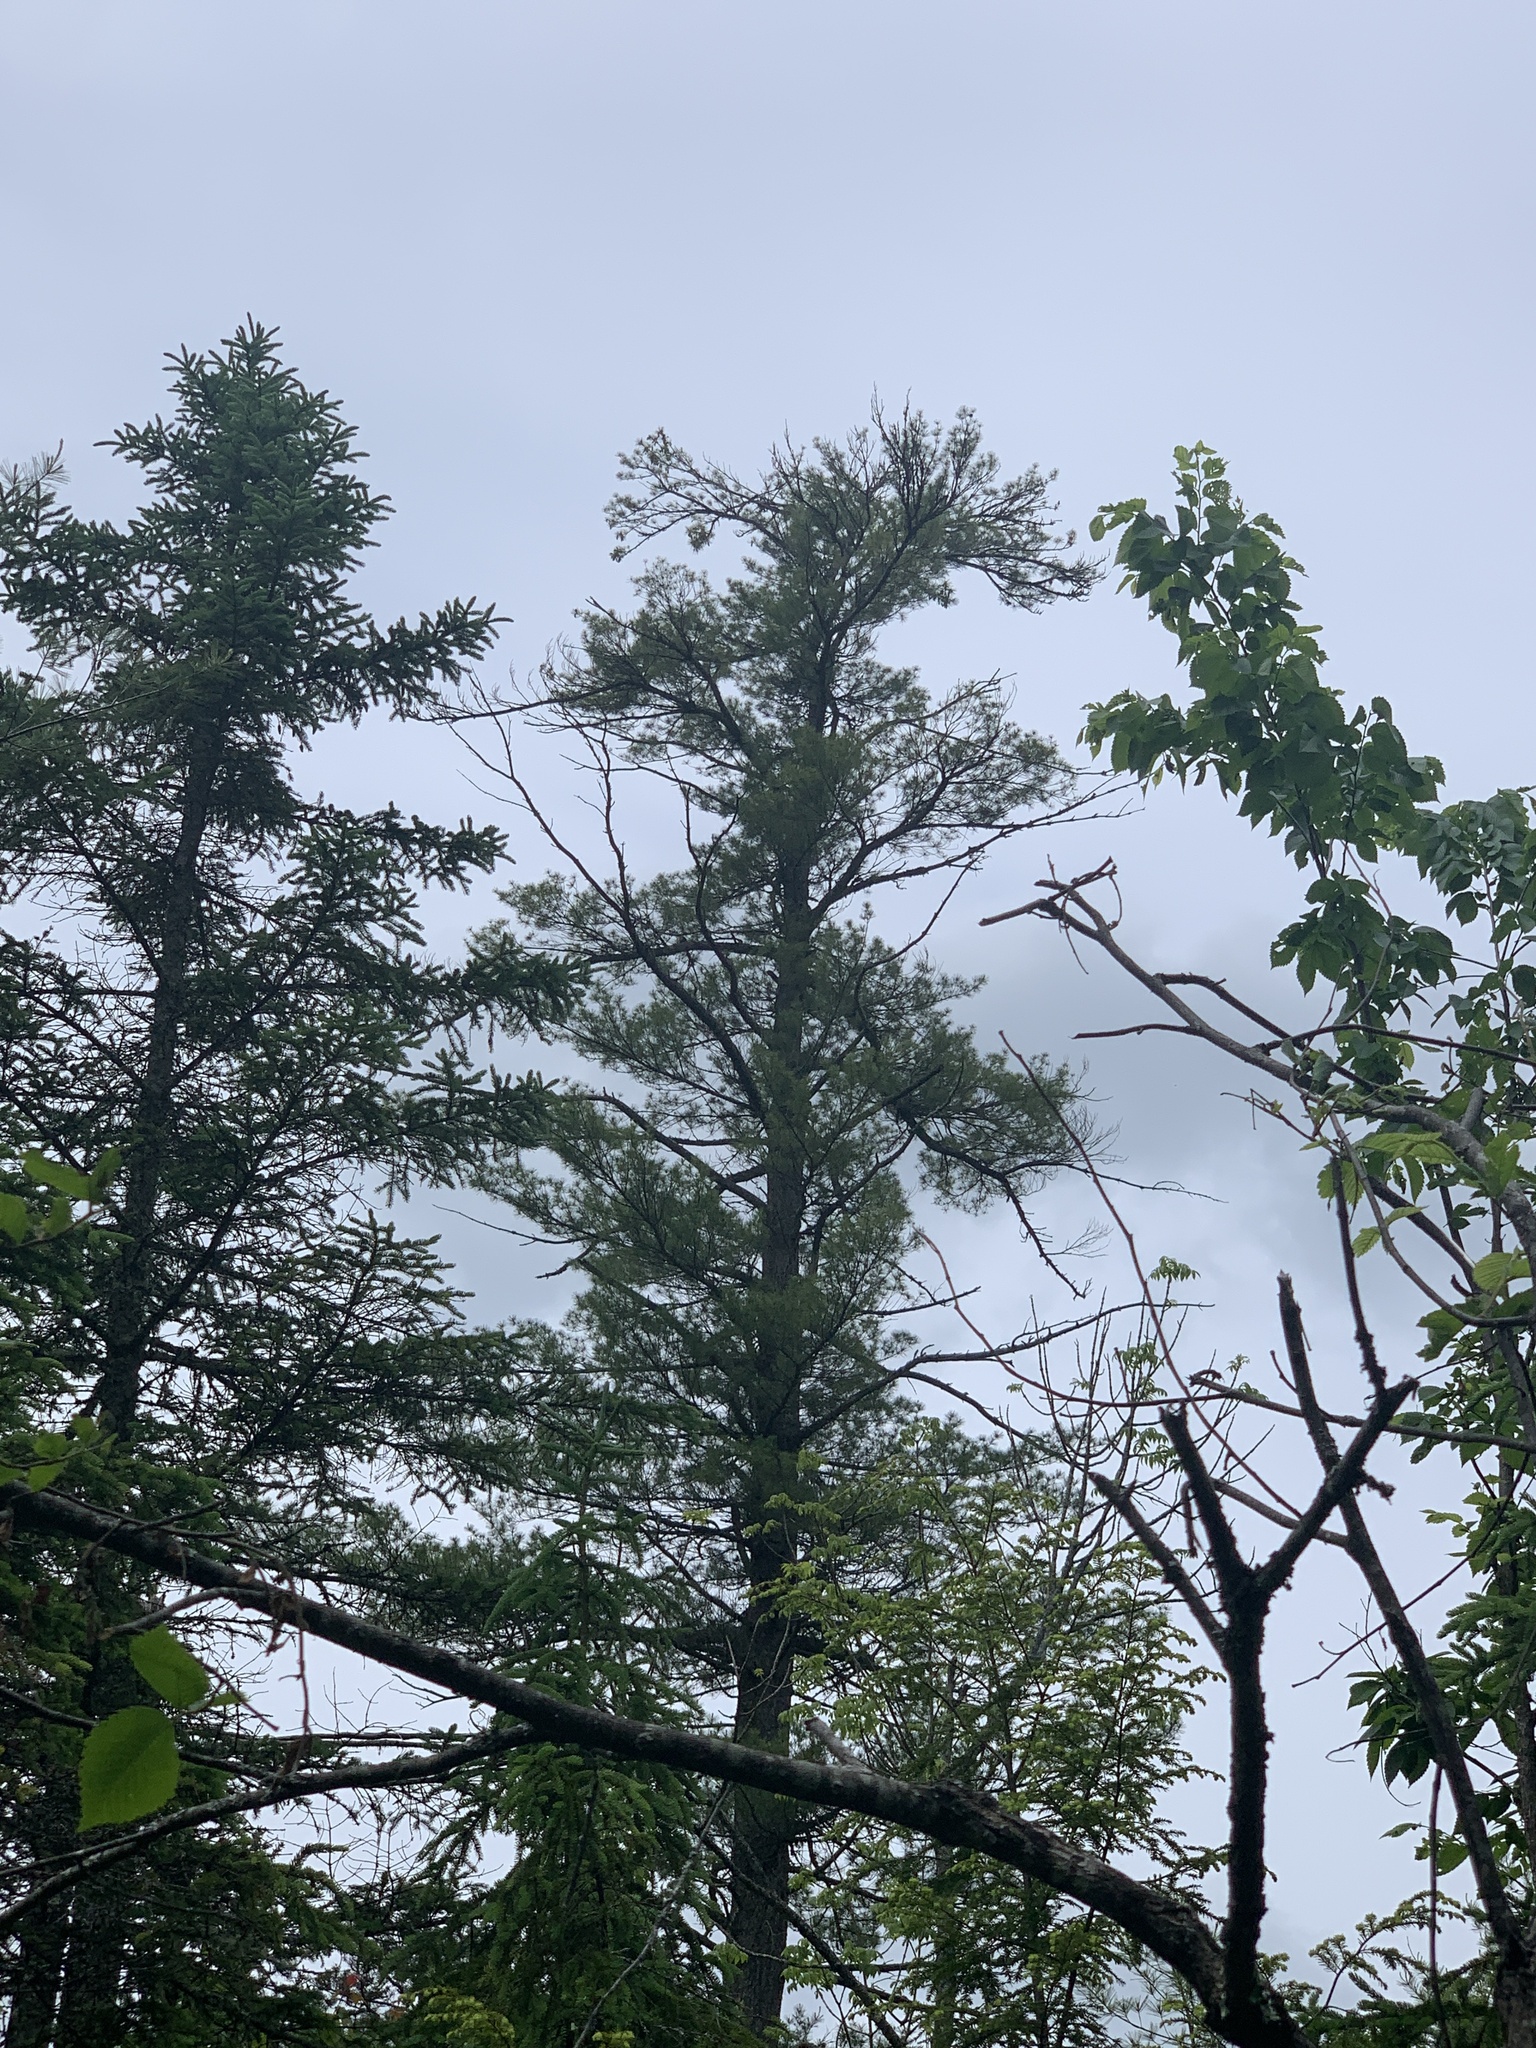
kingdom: Plantae
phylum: Tracheophyta
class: Pinopsida
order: Pinales
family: Pinaceae
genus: Pinus
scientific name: Pinus strobus
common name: Weymouth pine
